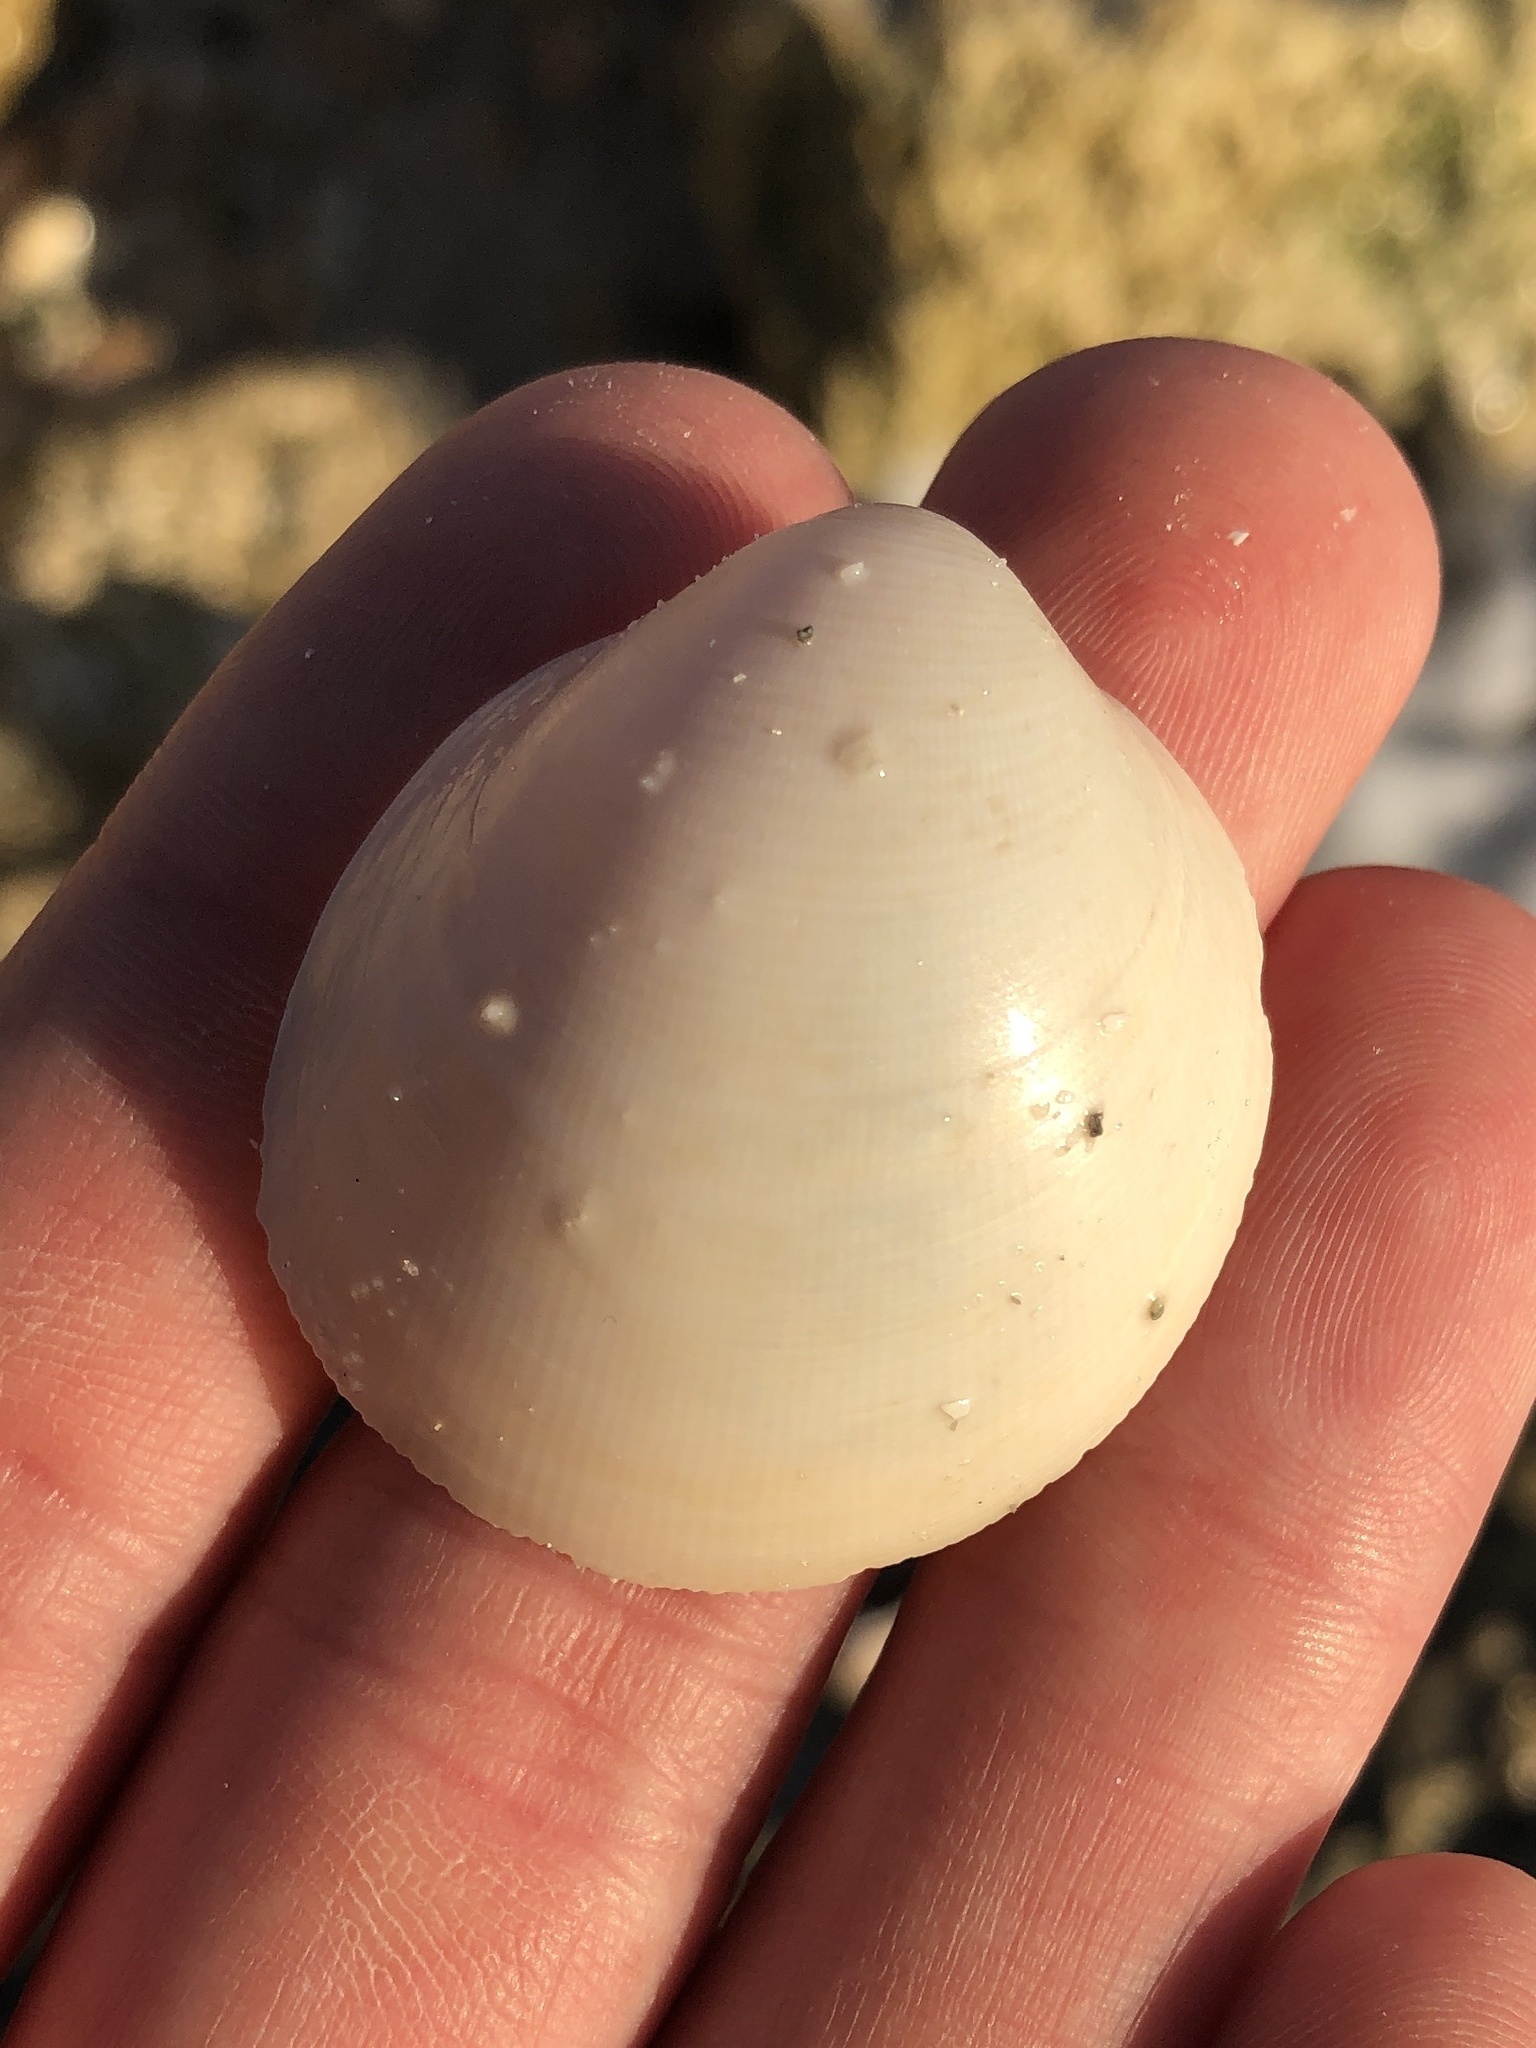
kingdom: Animalia
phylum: Mollusca
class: Bivalvia
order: Cardiida
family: Cardiidae
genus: Laevicardium
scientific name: Laevicardium serratum
